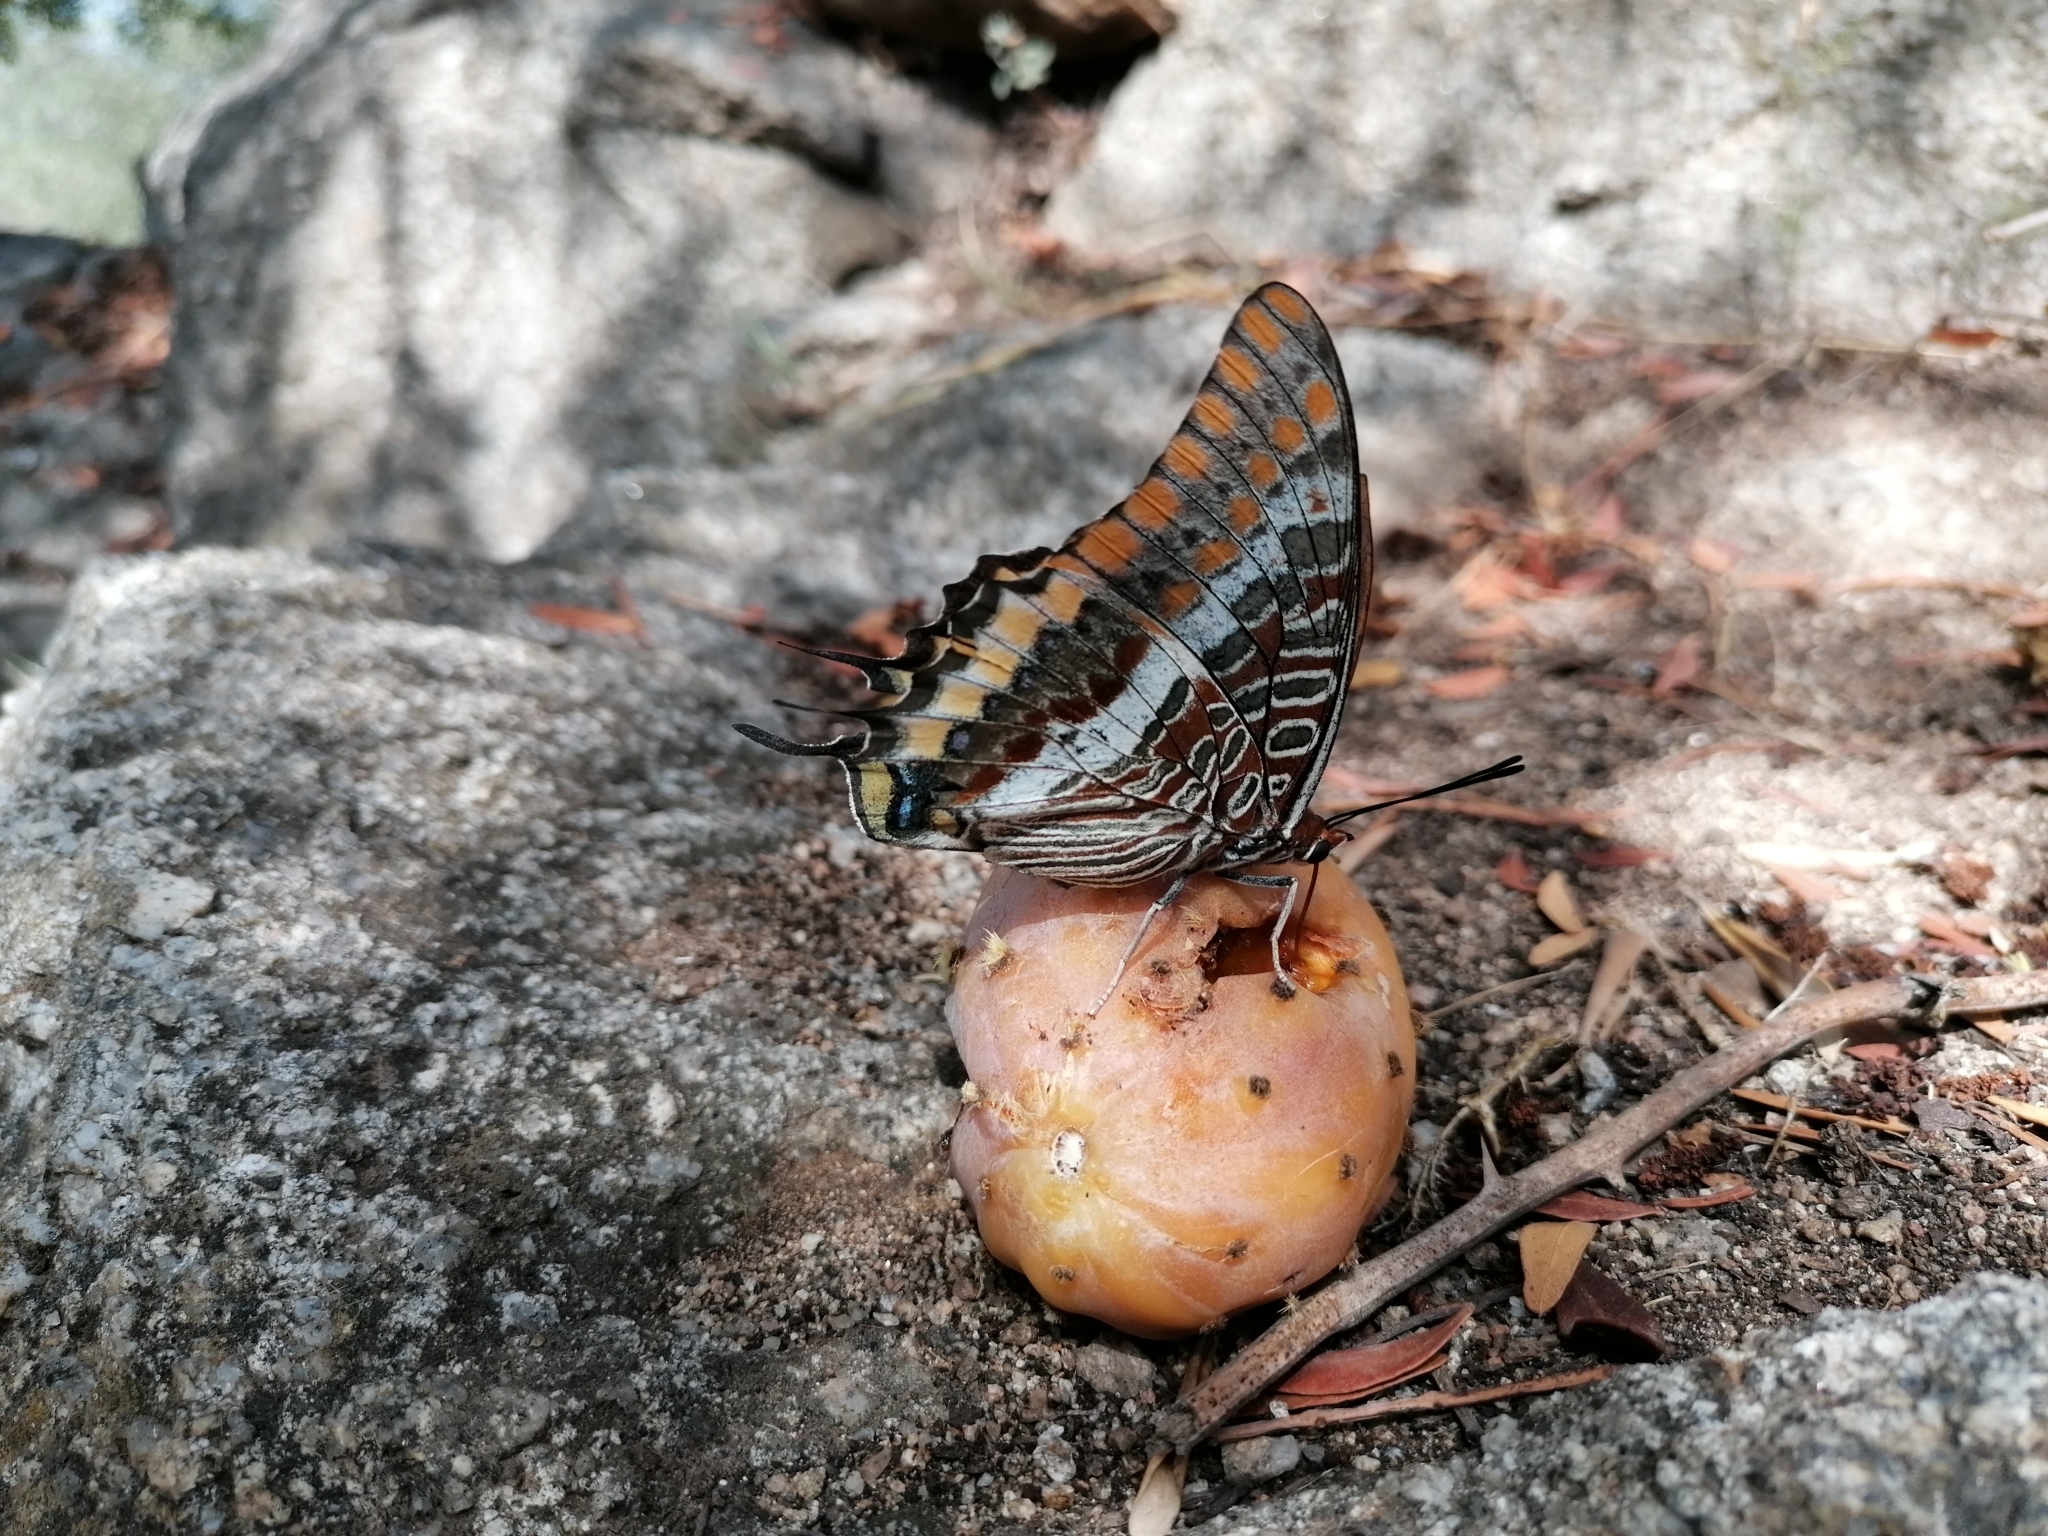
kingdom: Animalia
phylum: Arthropoda
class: Insecta
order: Lepidoptera
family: Nymphalidae
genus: Charaxes
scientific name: Charaxes jasius
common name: Two tailed pasha
